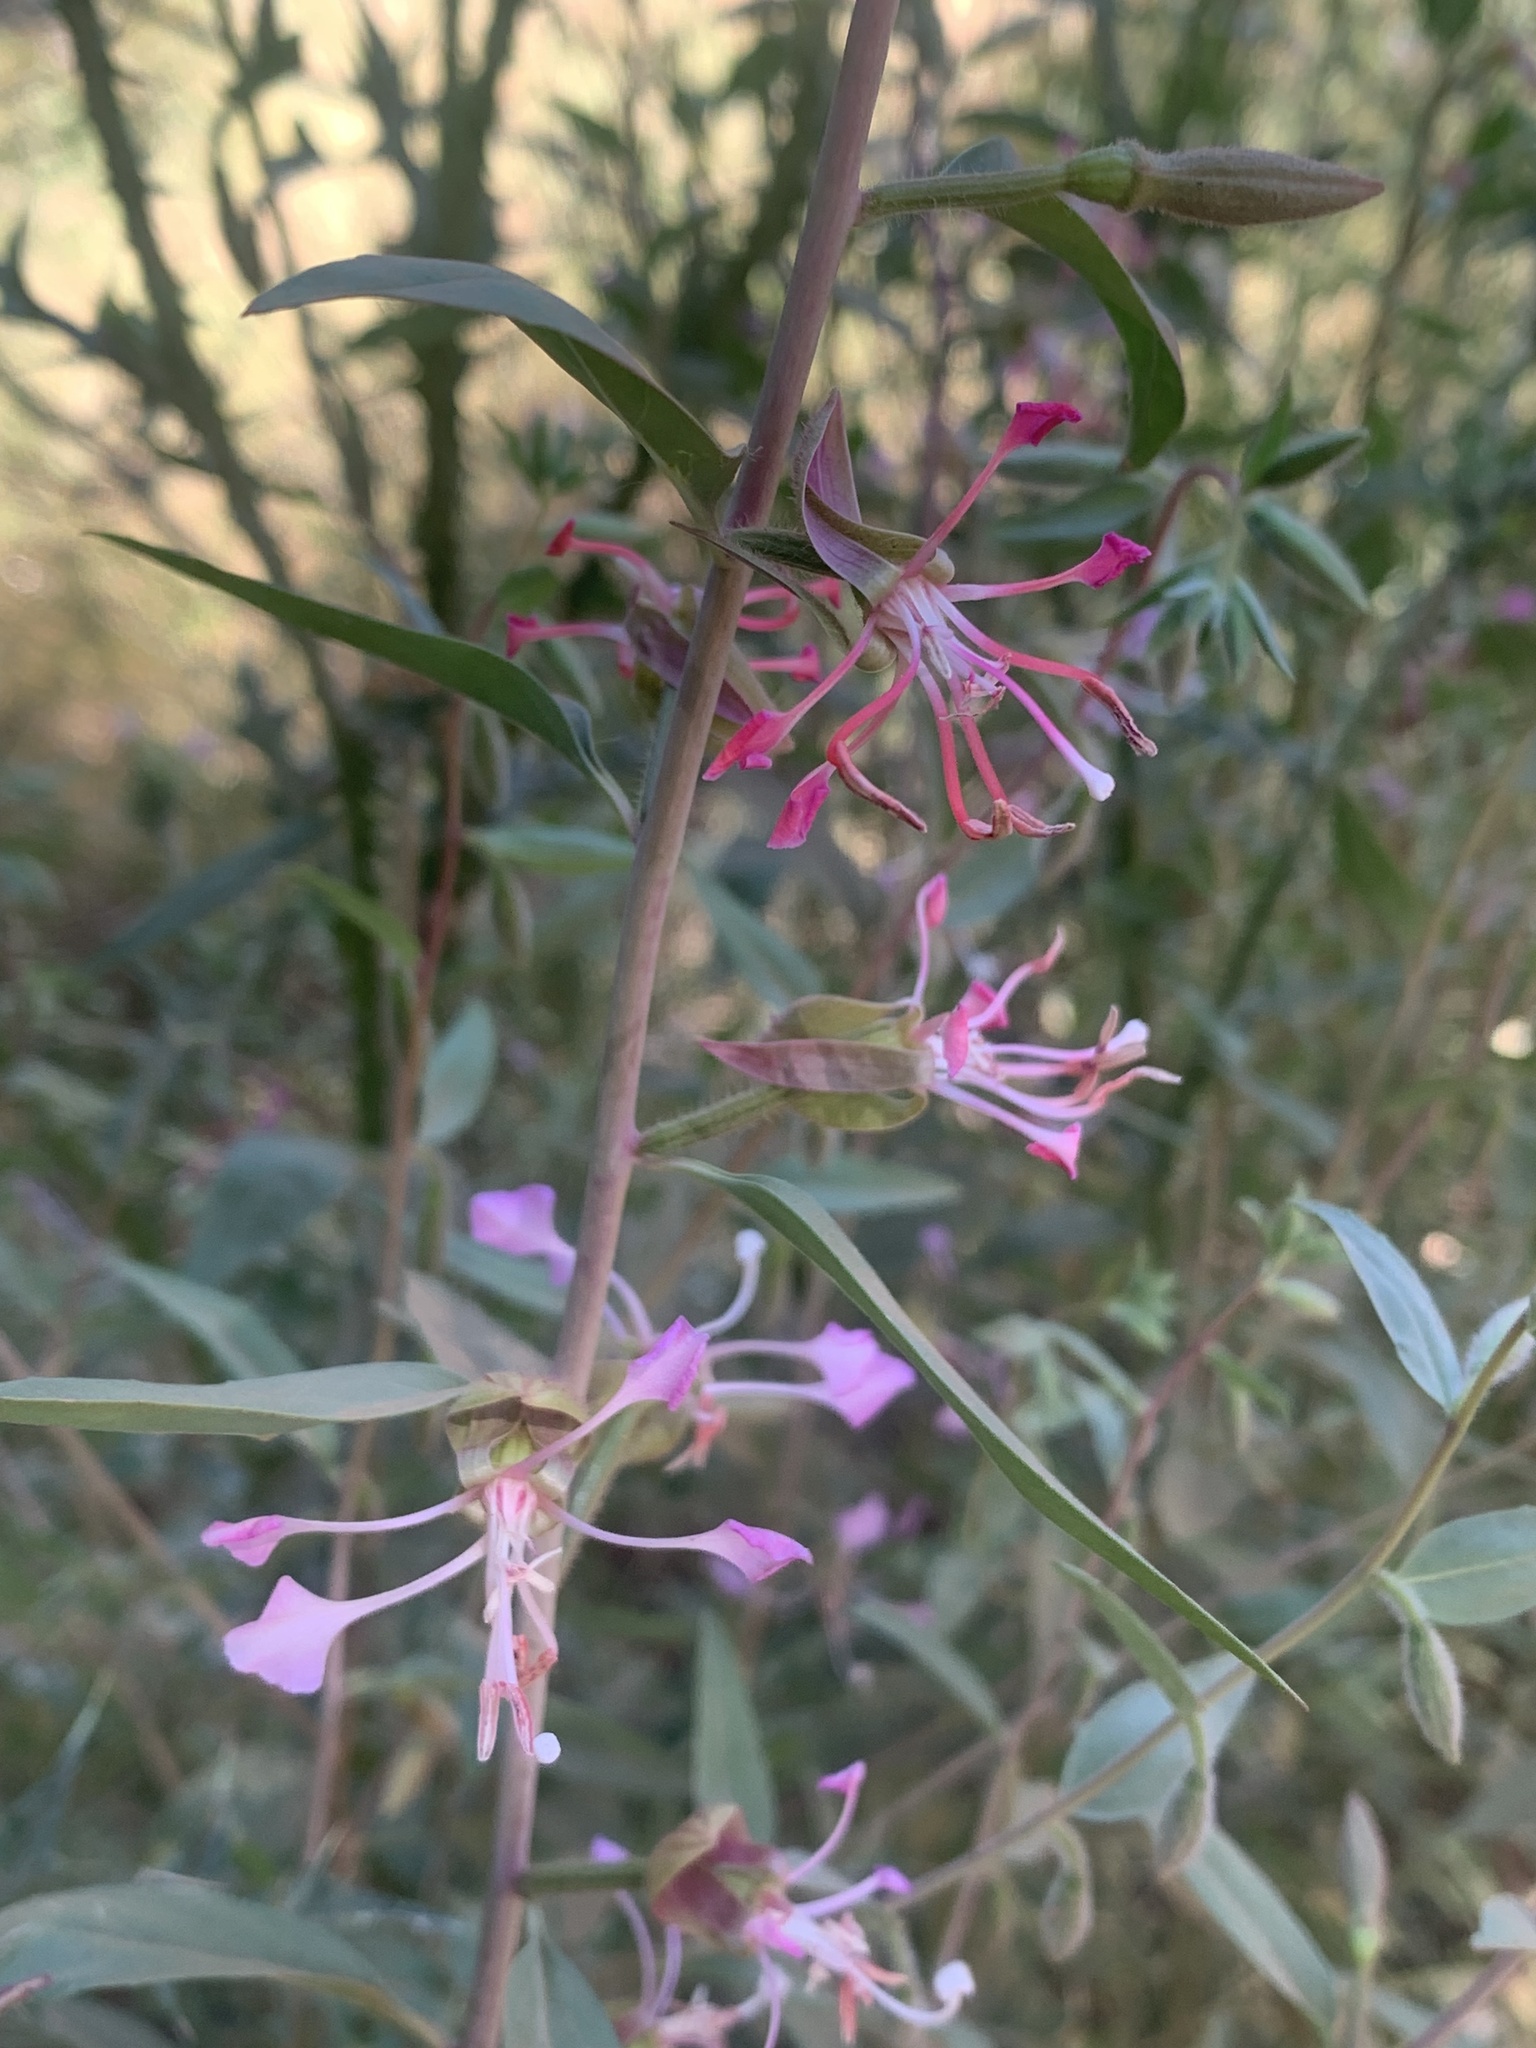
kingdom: Plantae
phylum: Tracheophyta
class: Magnoliopsida
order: Myrtales
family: Onagraceae
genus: Clarkia
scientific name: Clarkia unguiculata
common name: Clarkia
